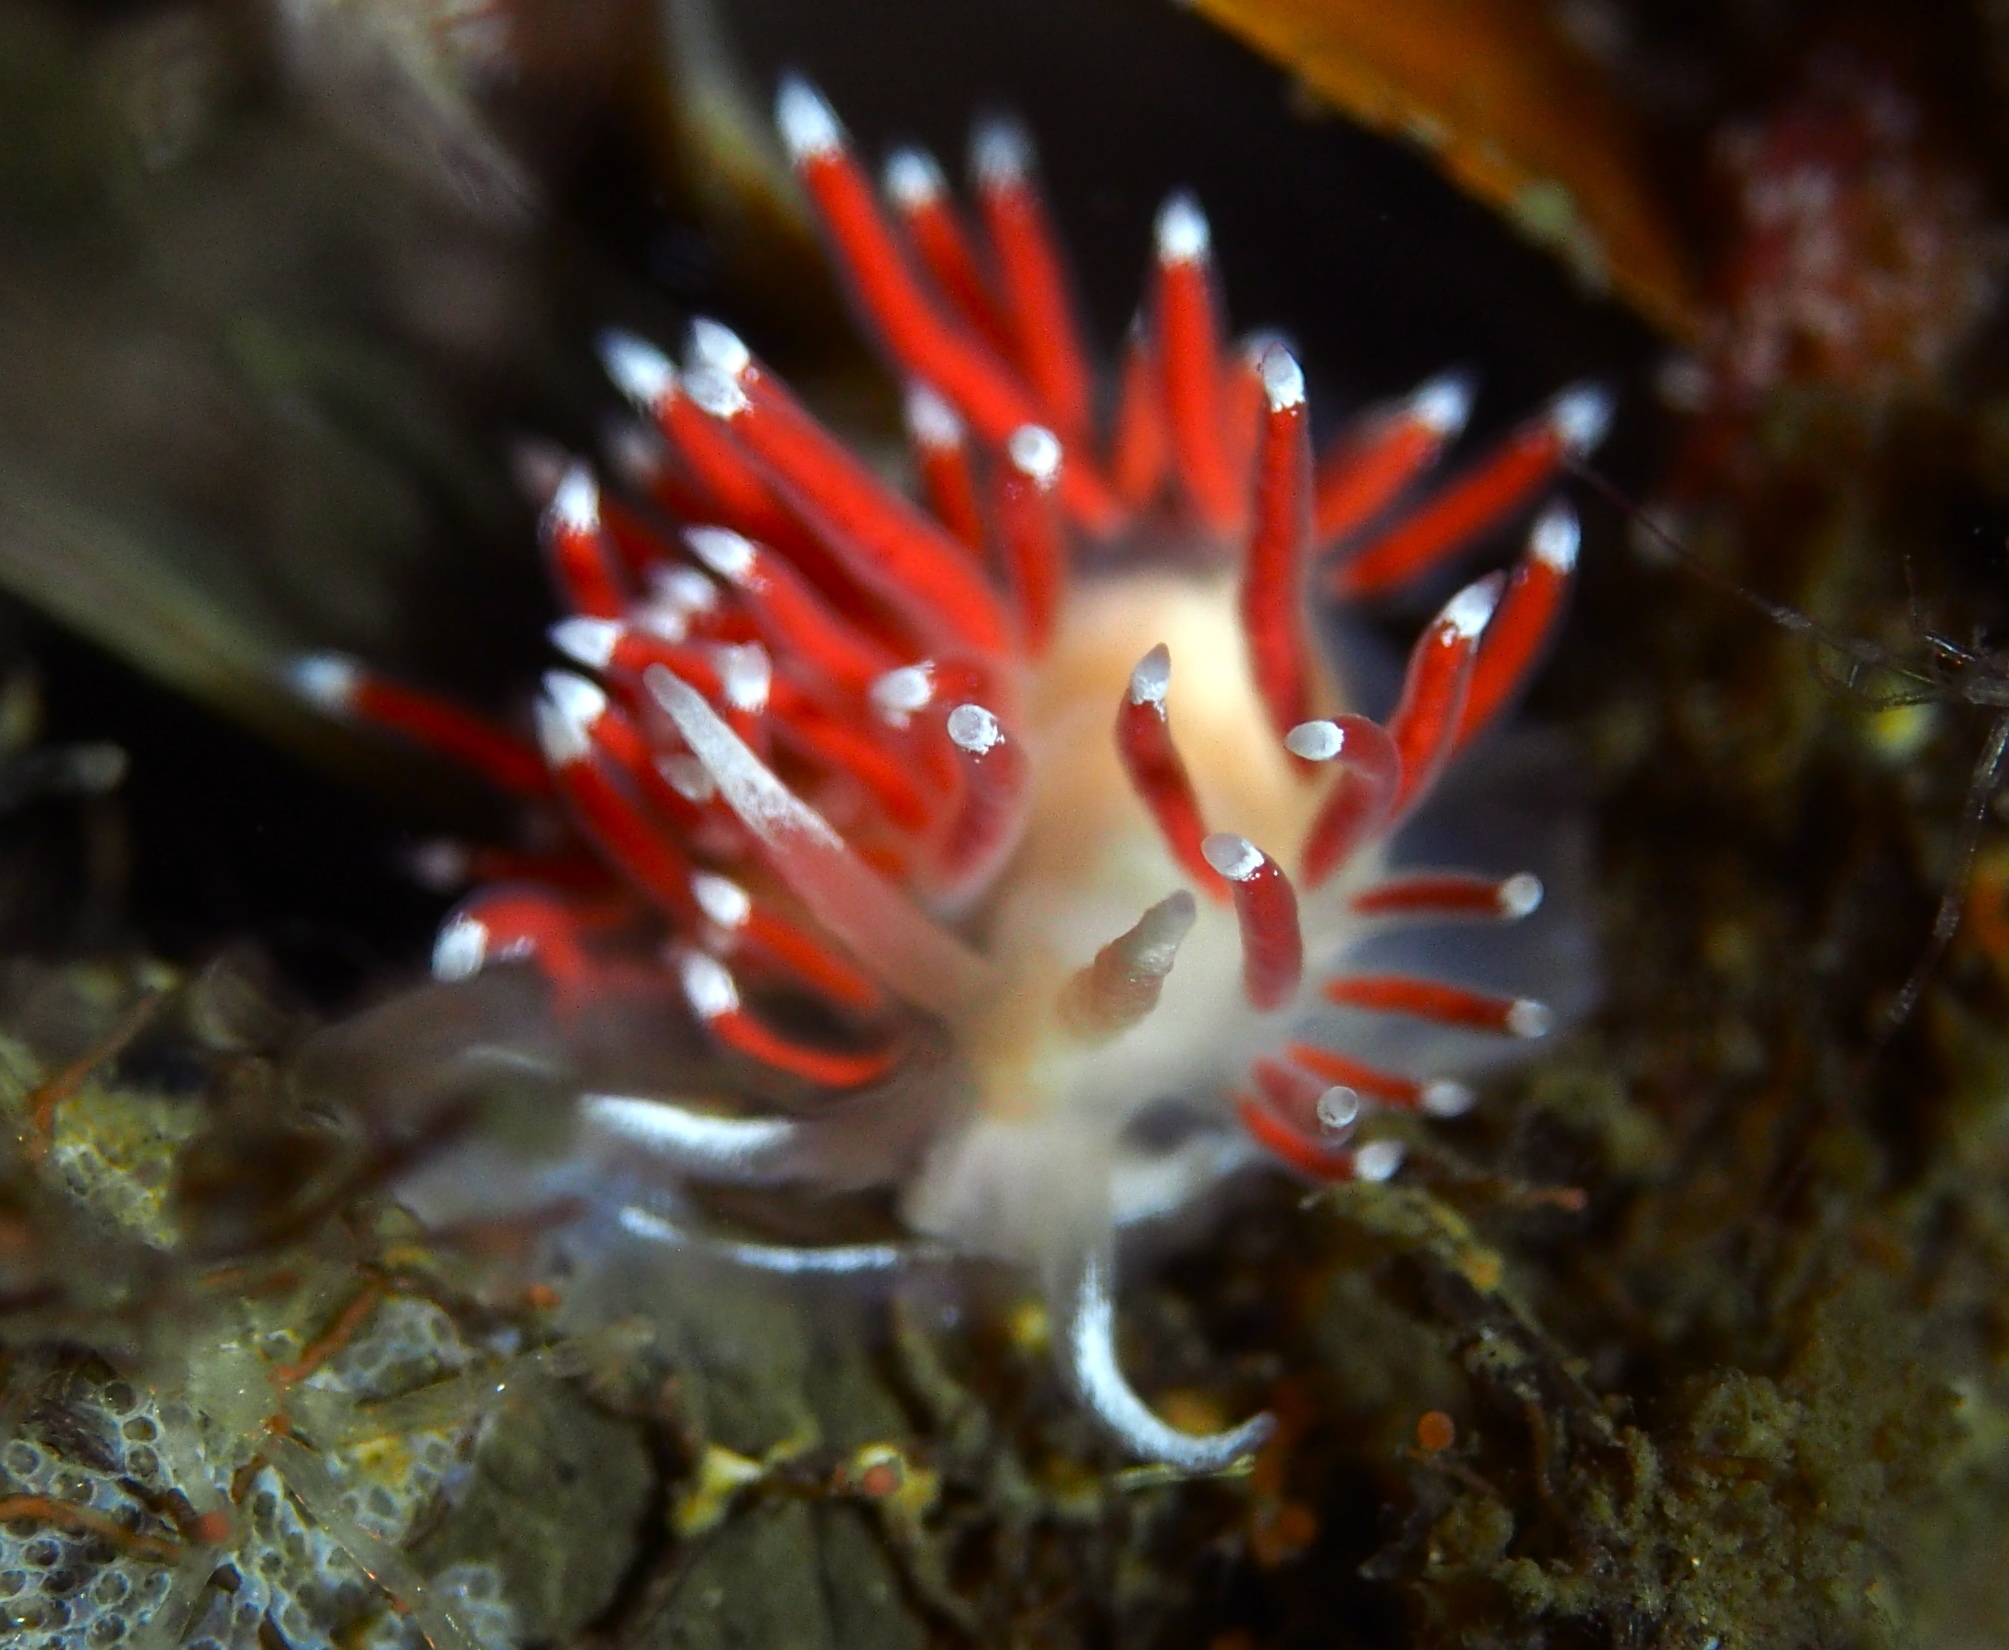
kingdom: Animalia
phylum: Mollusca
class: Gastropoda
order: Nudibranchia
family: Coryphellidae
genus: Coryphella
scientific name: Coryphella gracilis
